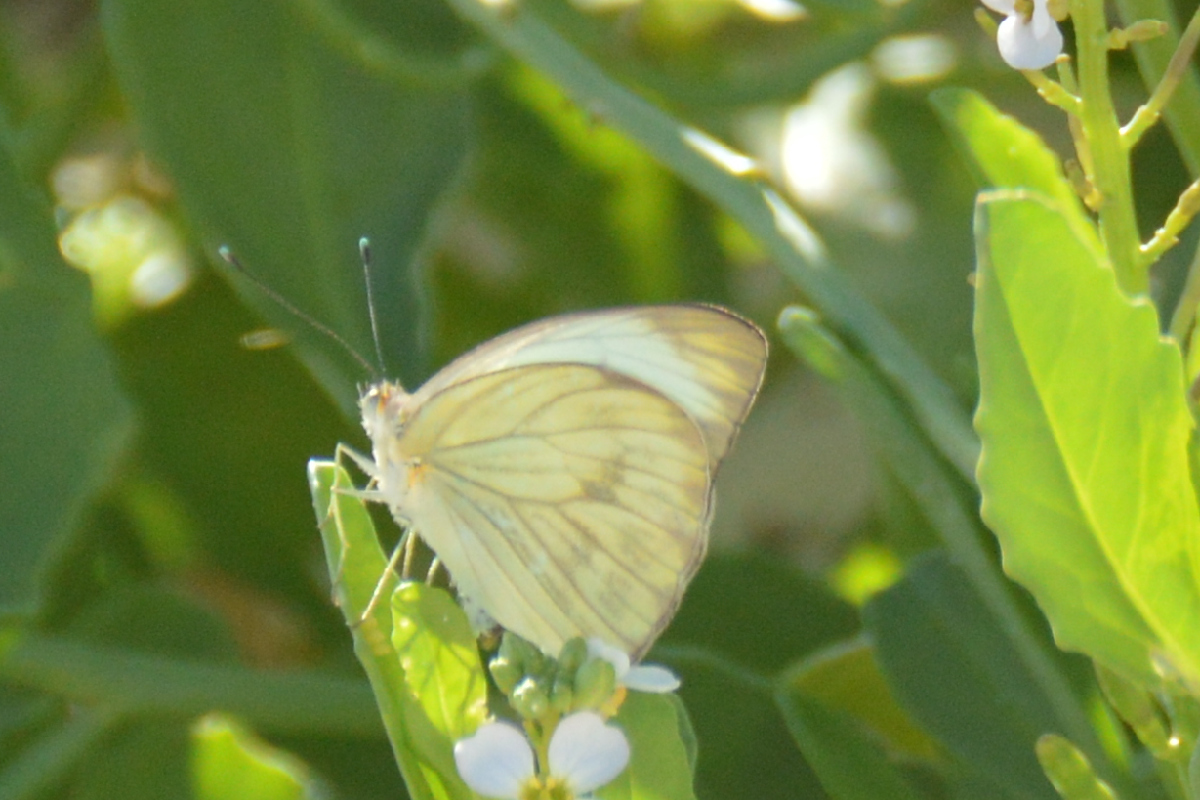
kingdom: Animalia
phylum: Arthropoda
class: Insecta
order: Lepidoptera
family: Pieridae
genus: Ascia
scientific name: Ascia monuste
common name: Great southern white
